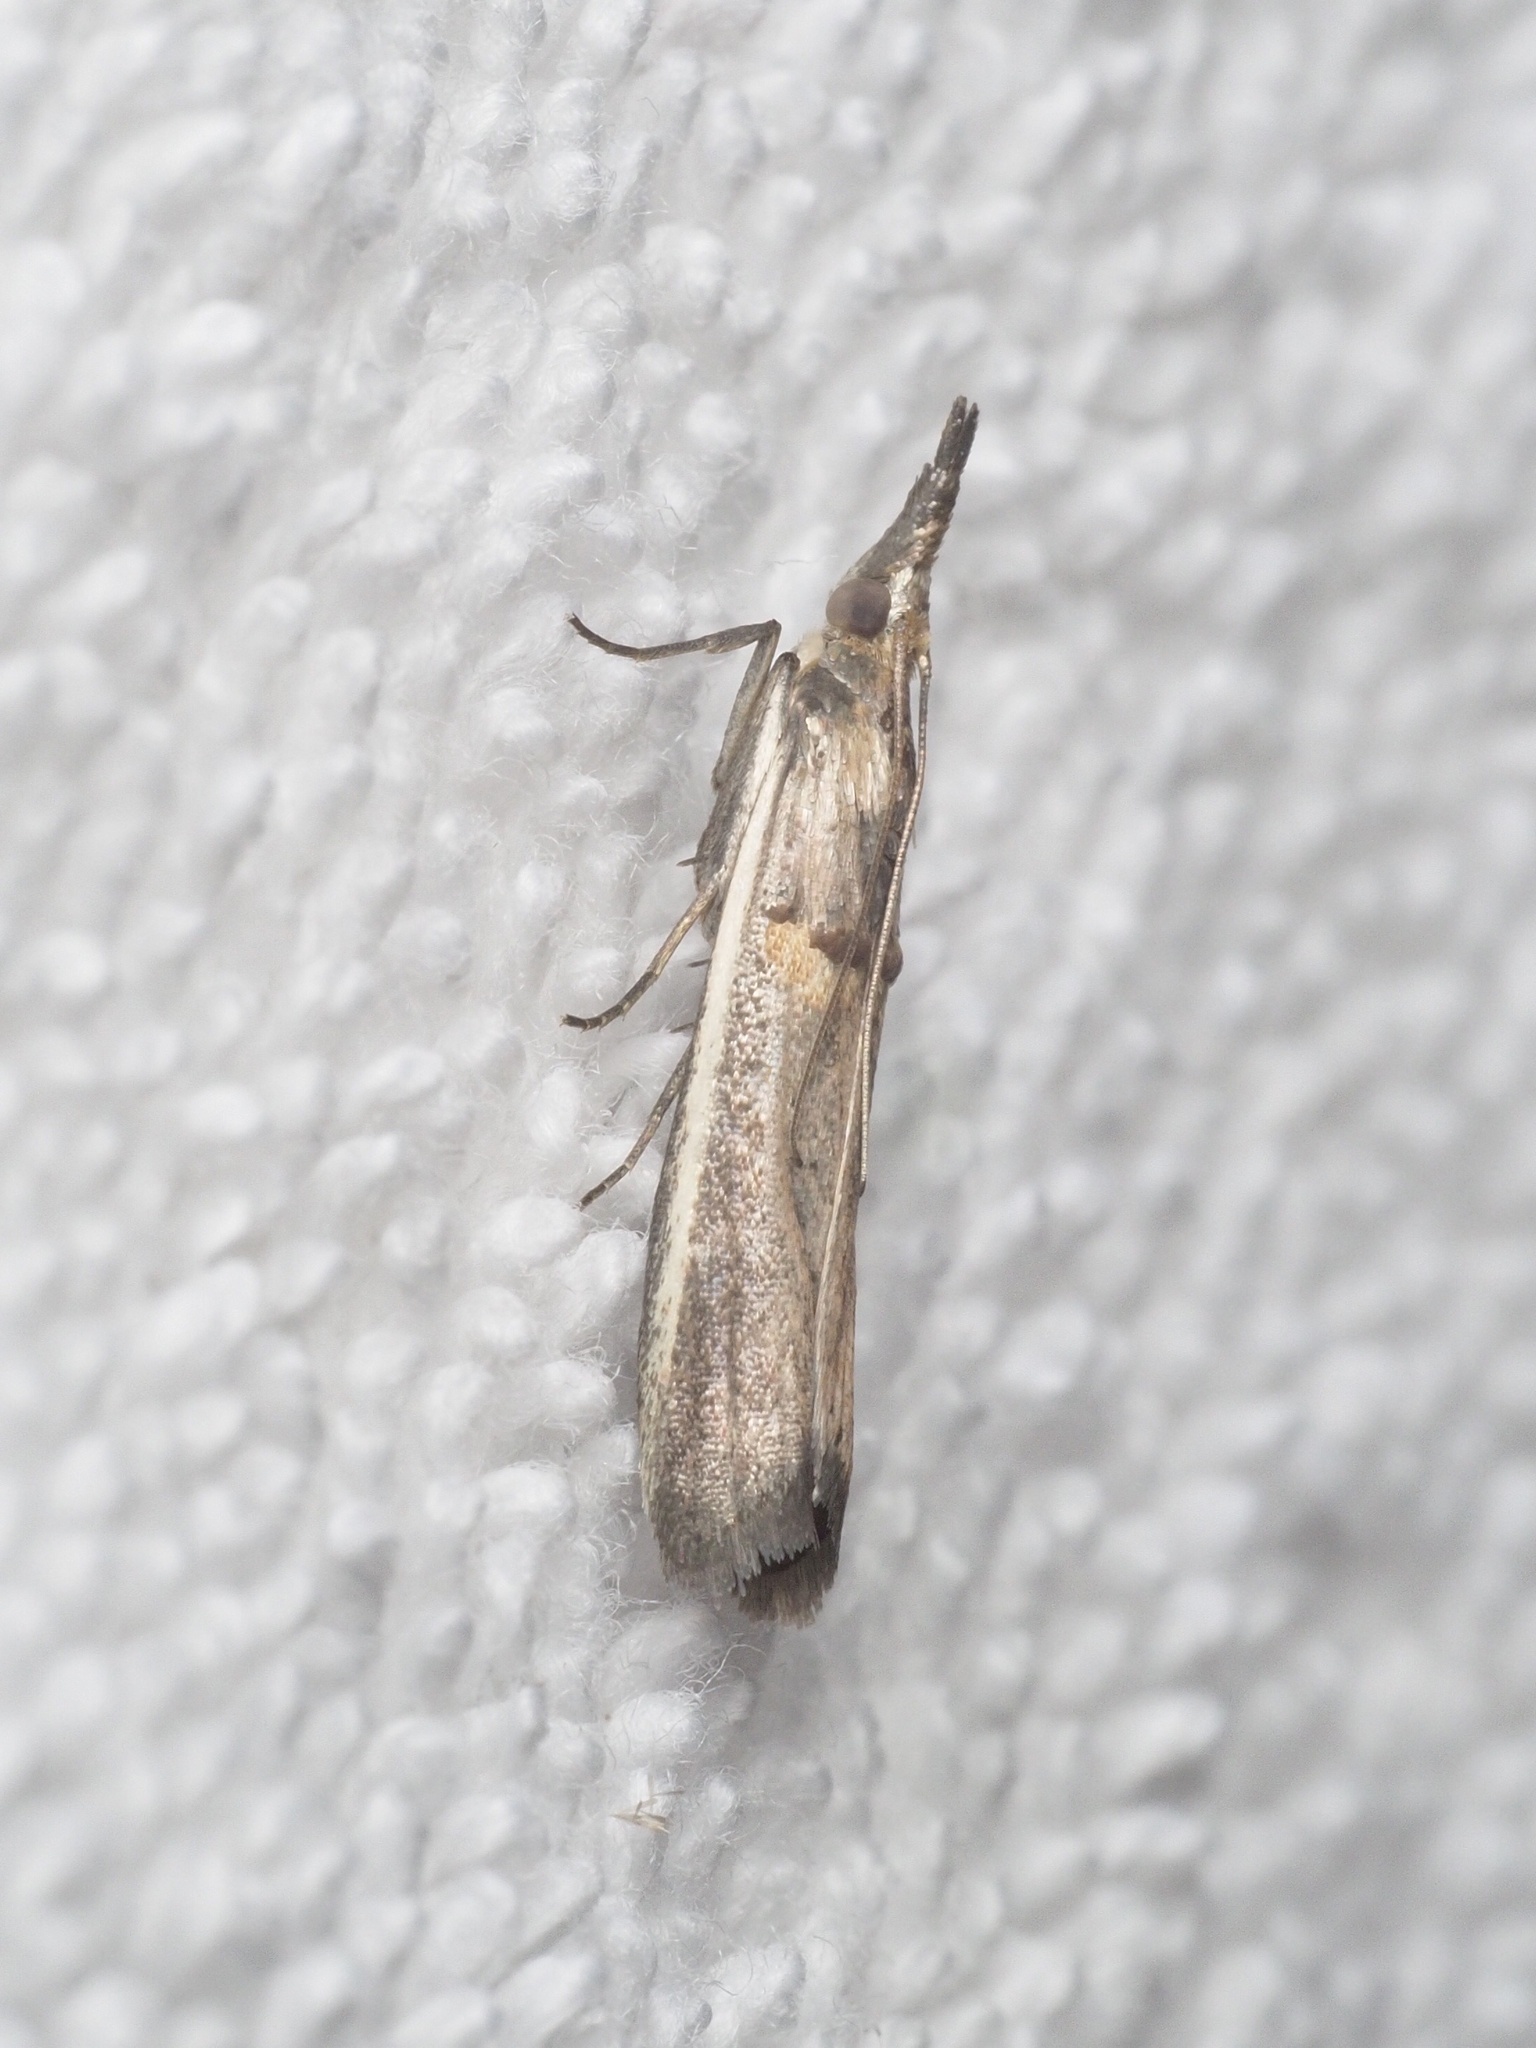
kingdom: Animalia
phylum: Arthropoda
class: Insecta
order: Lepidoptera
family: Pyralidae
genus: Etiella
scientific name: Etiella zinckenella
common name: Gold-banded etiella moth
